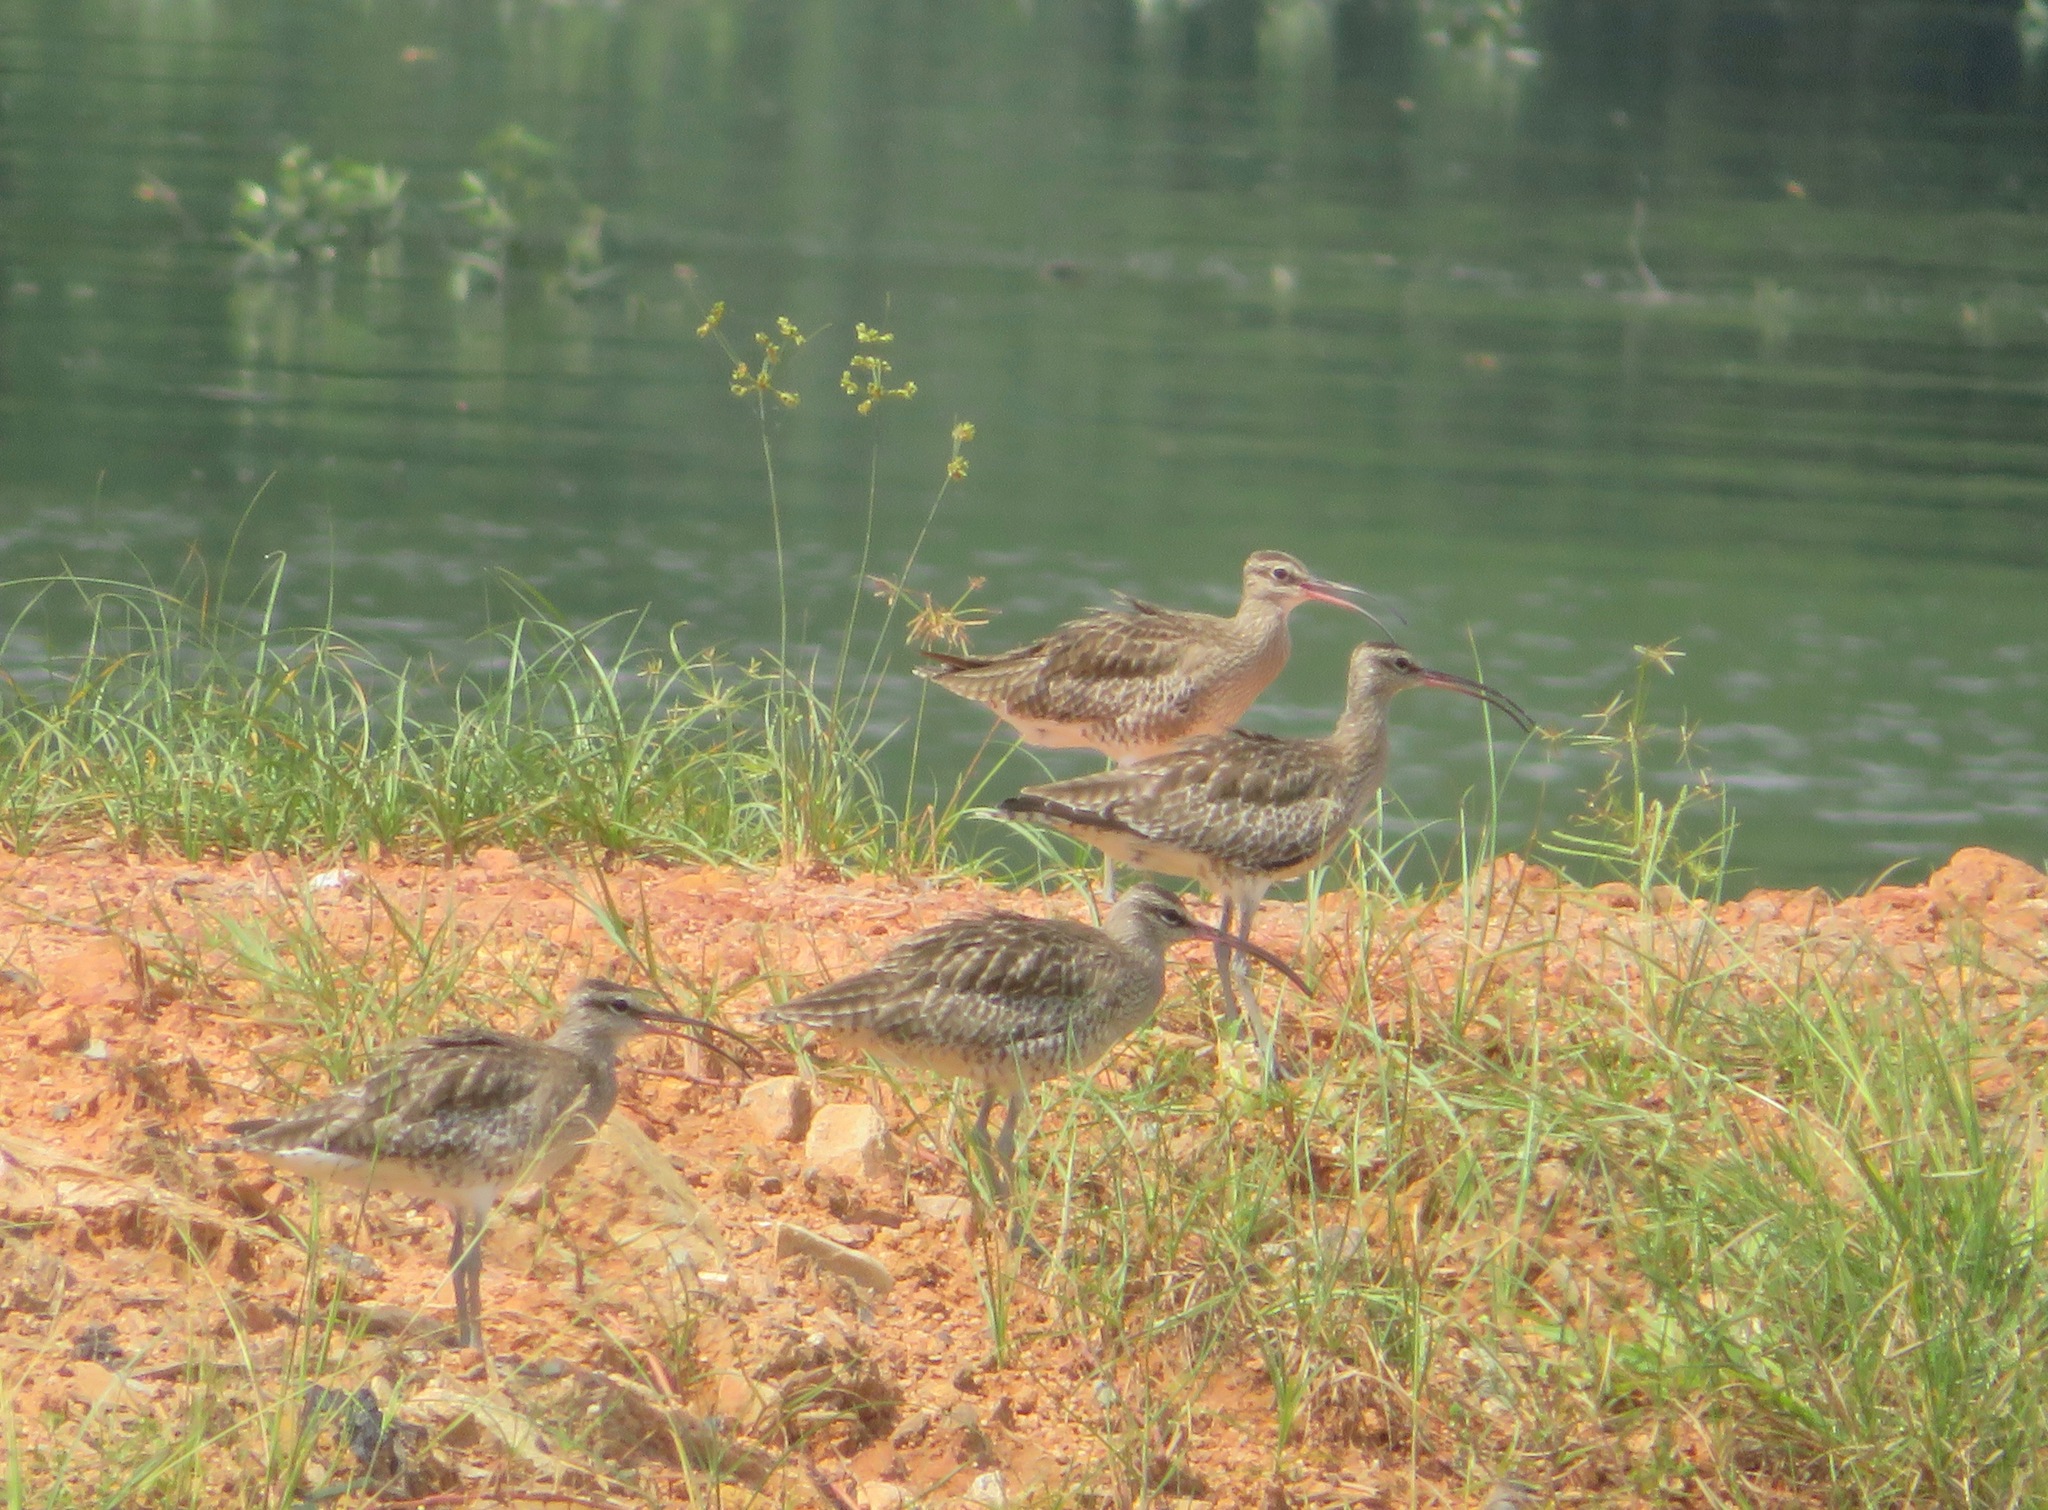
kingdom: Animalia
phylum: Chordata
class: Aves
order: Charadriiformes
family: Scolopacidae
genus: Numenius
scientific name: Numenius phaeopus
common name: Whimbrel
